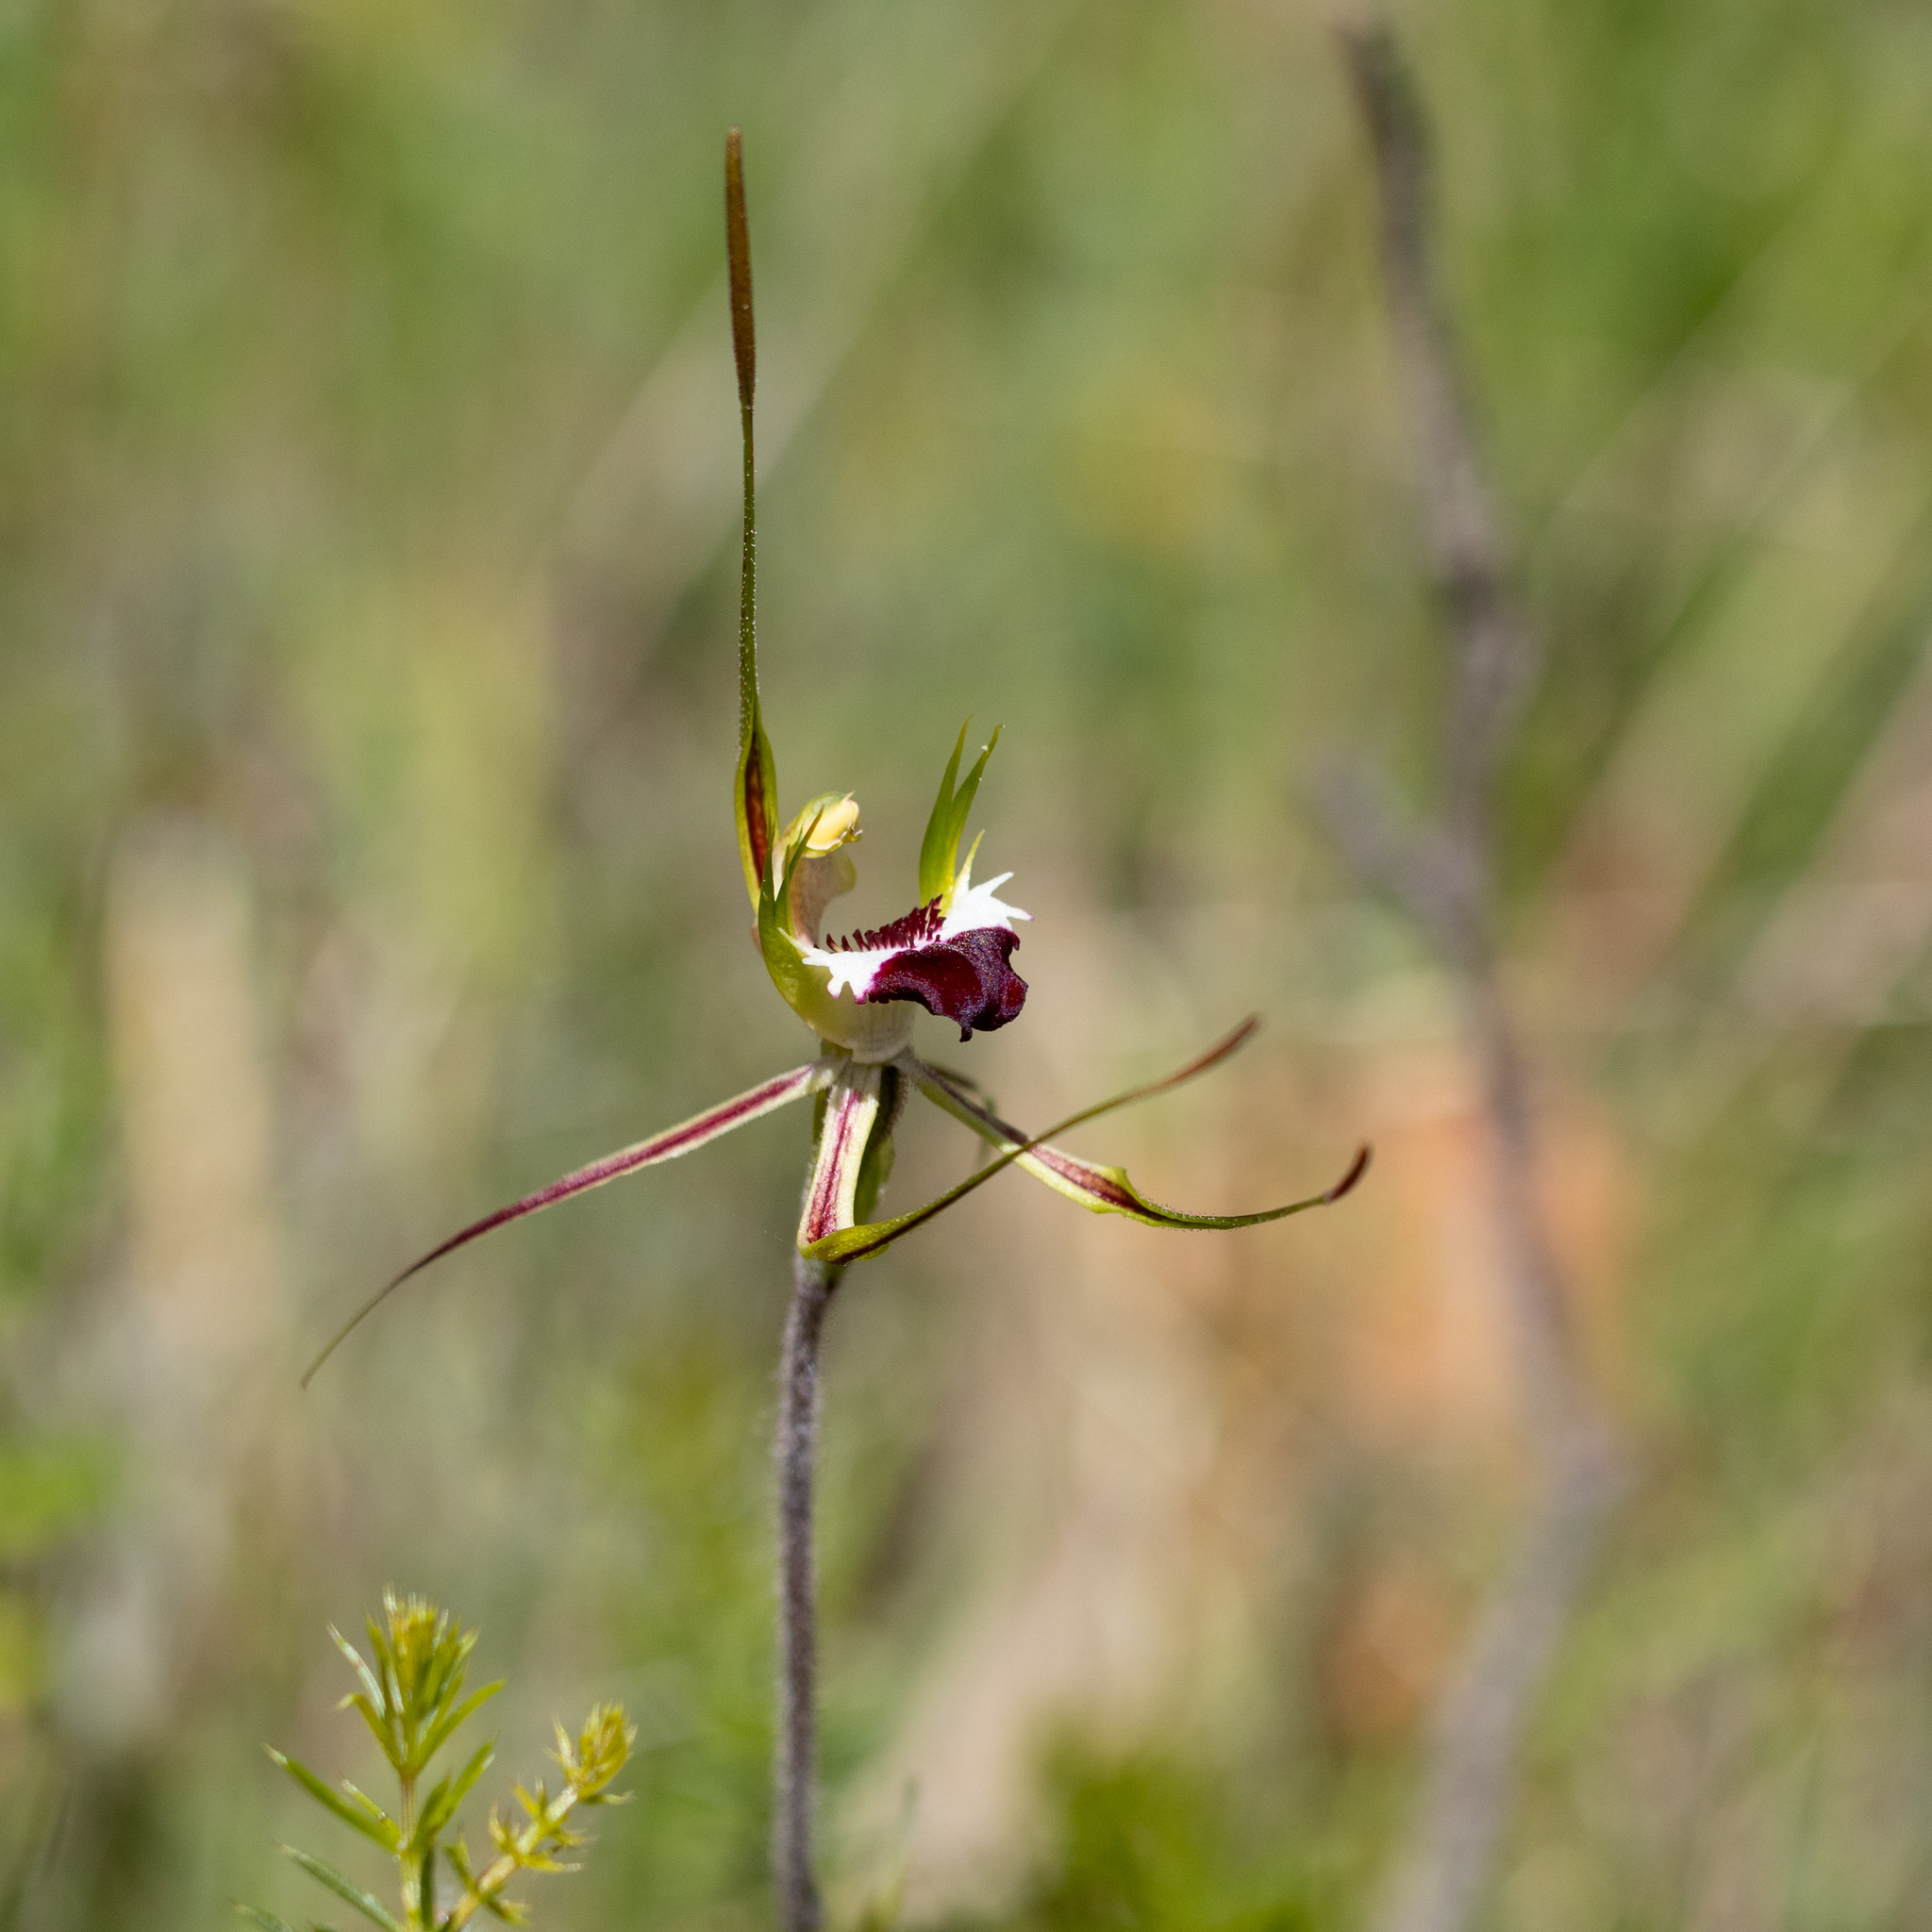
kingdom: Plantae
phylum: Tracheophyta
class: Liliopsida
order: Asparagales
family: Orchidaceae
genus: Caladenia
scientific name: Caladenia tentaculata
